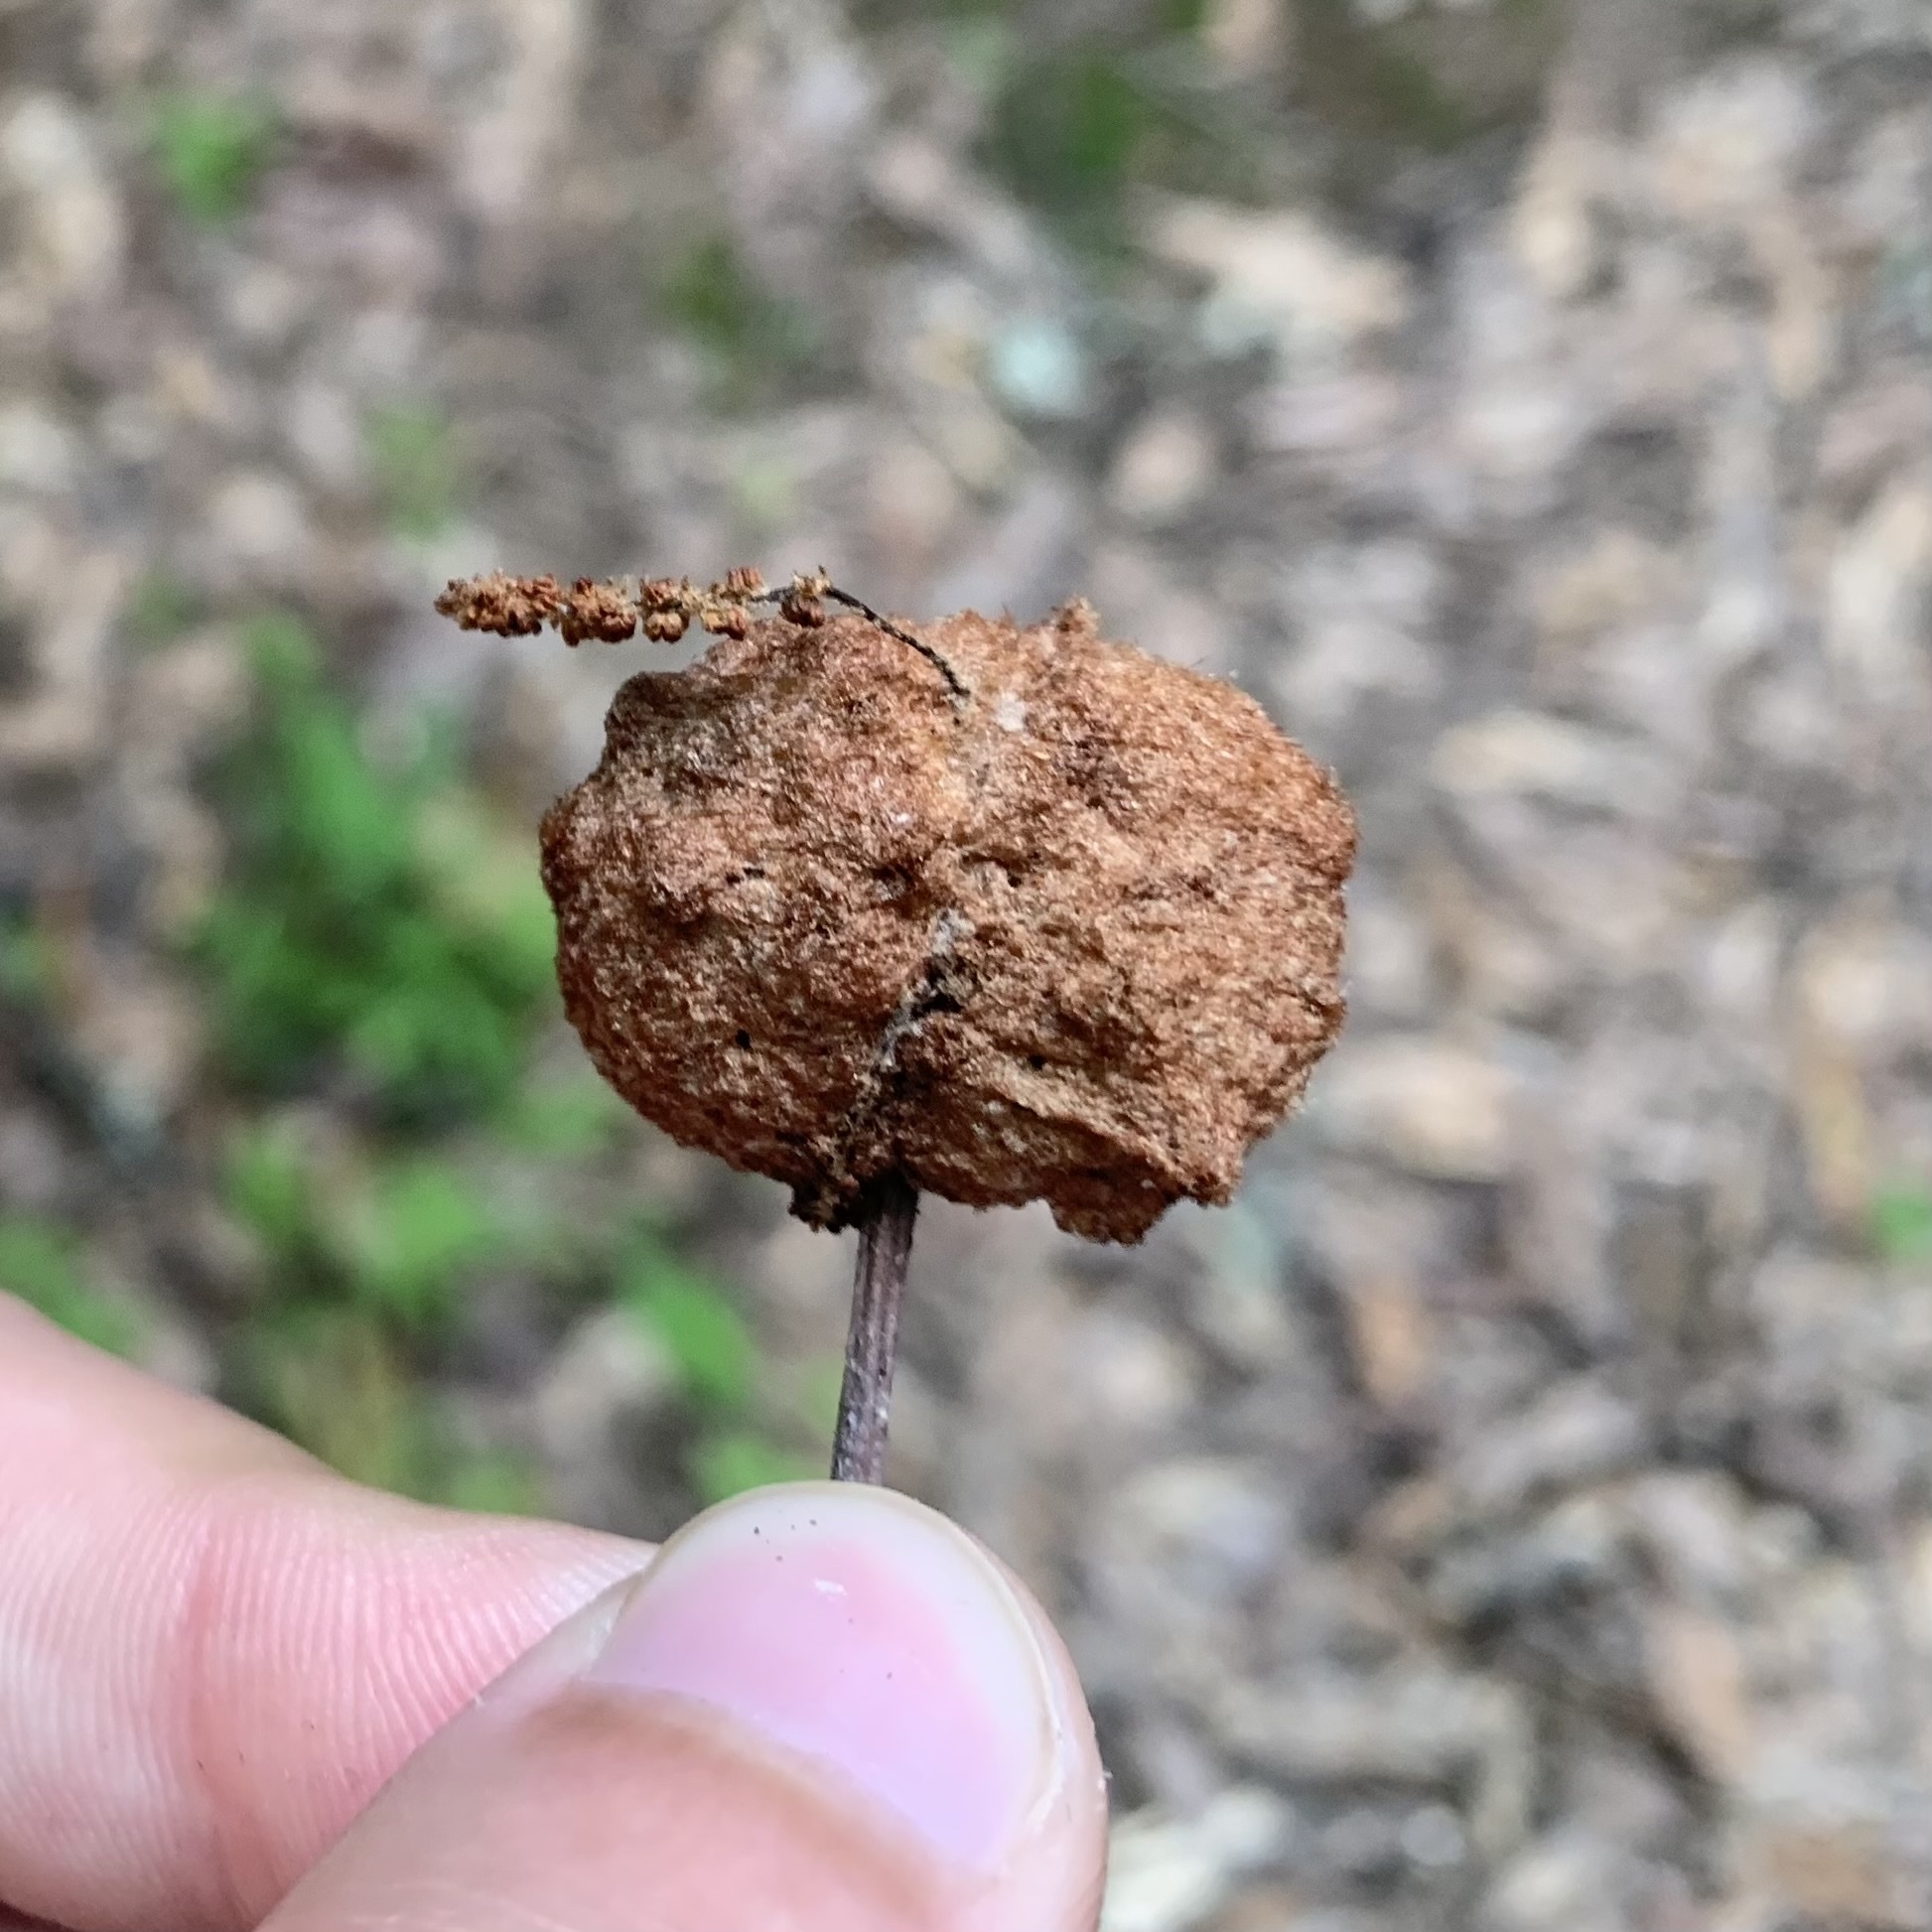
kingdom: Animalia
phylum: Arthropoda
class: Insecta
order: Hymenoptera
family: Cynipidae
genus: Callirhytis
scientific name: Callirhytis
